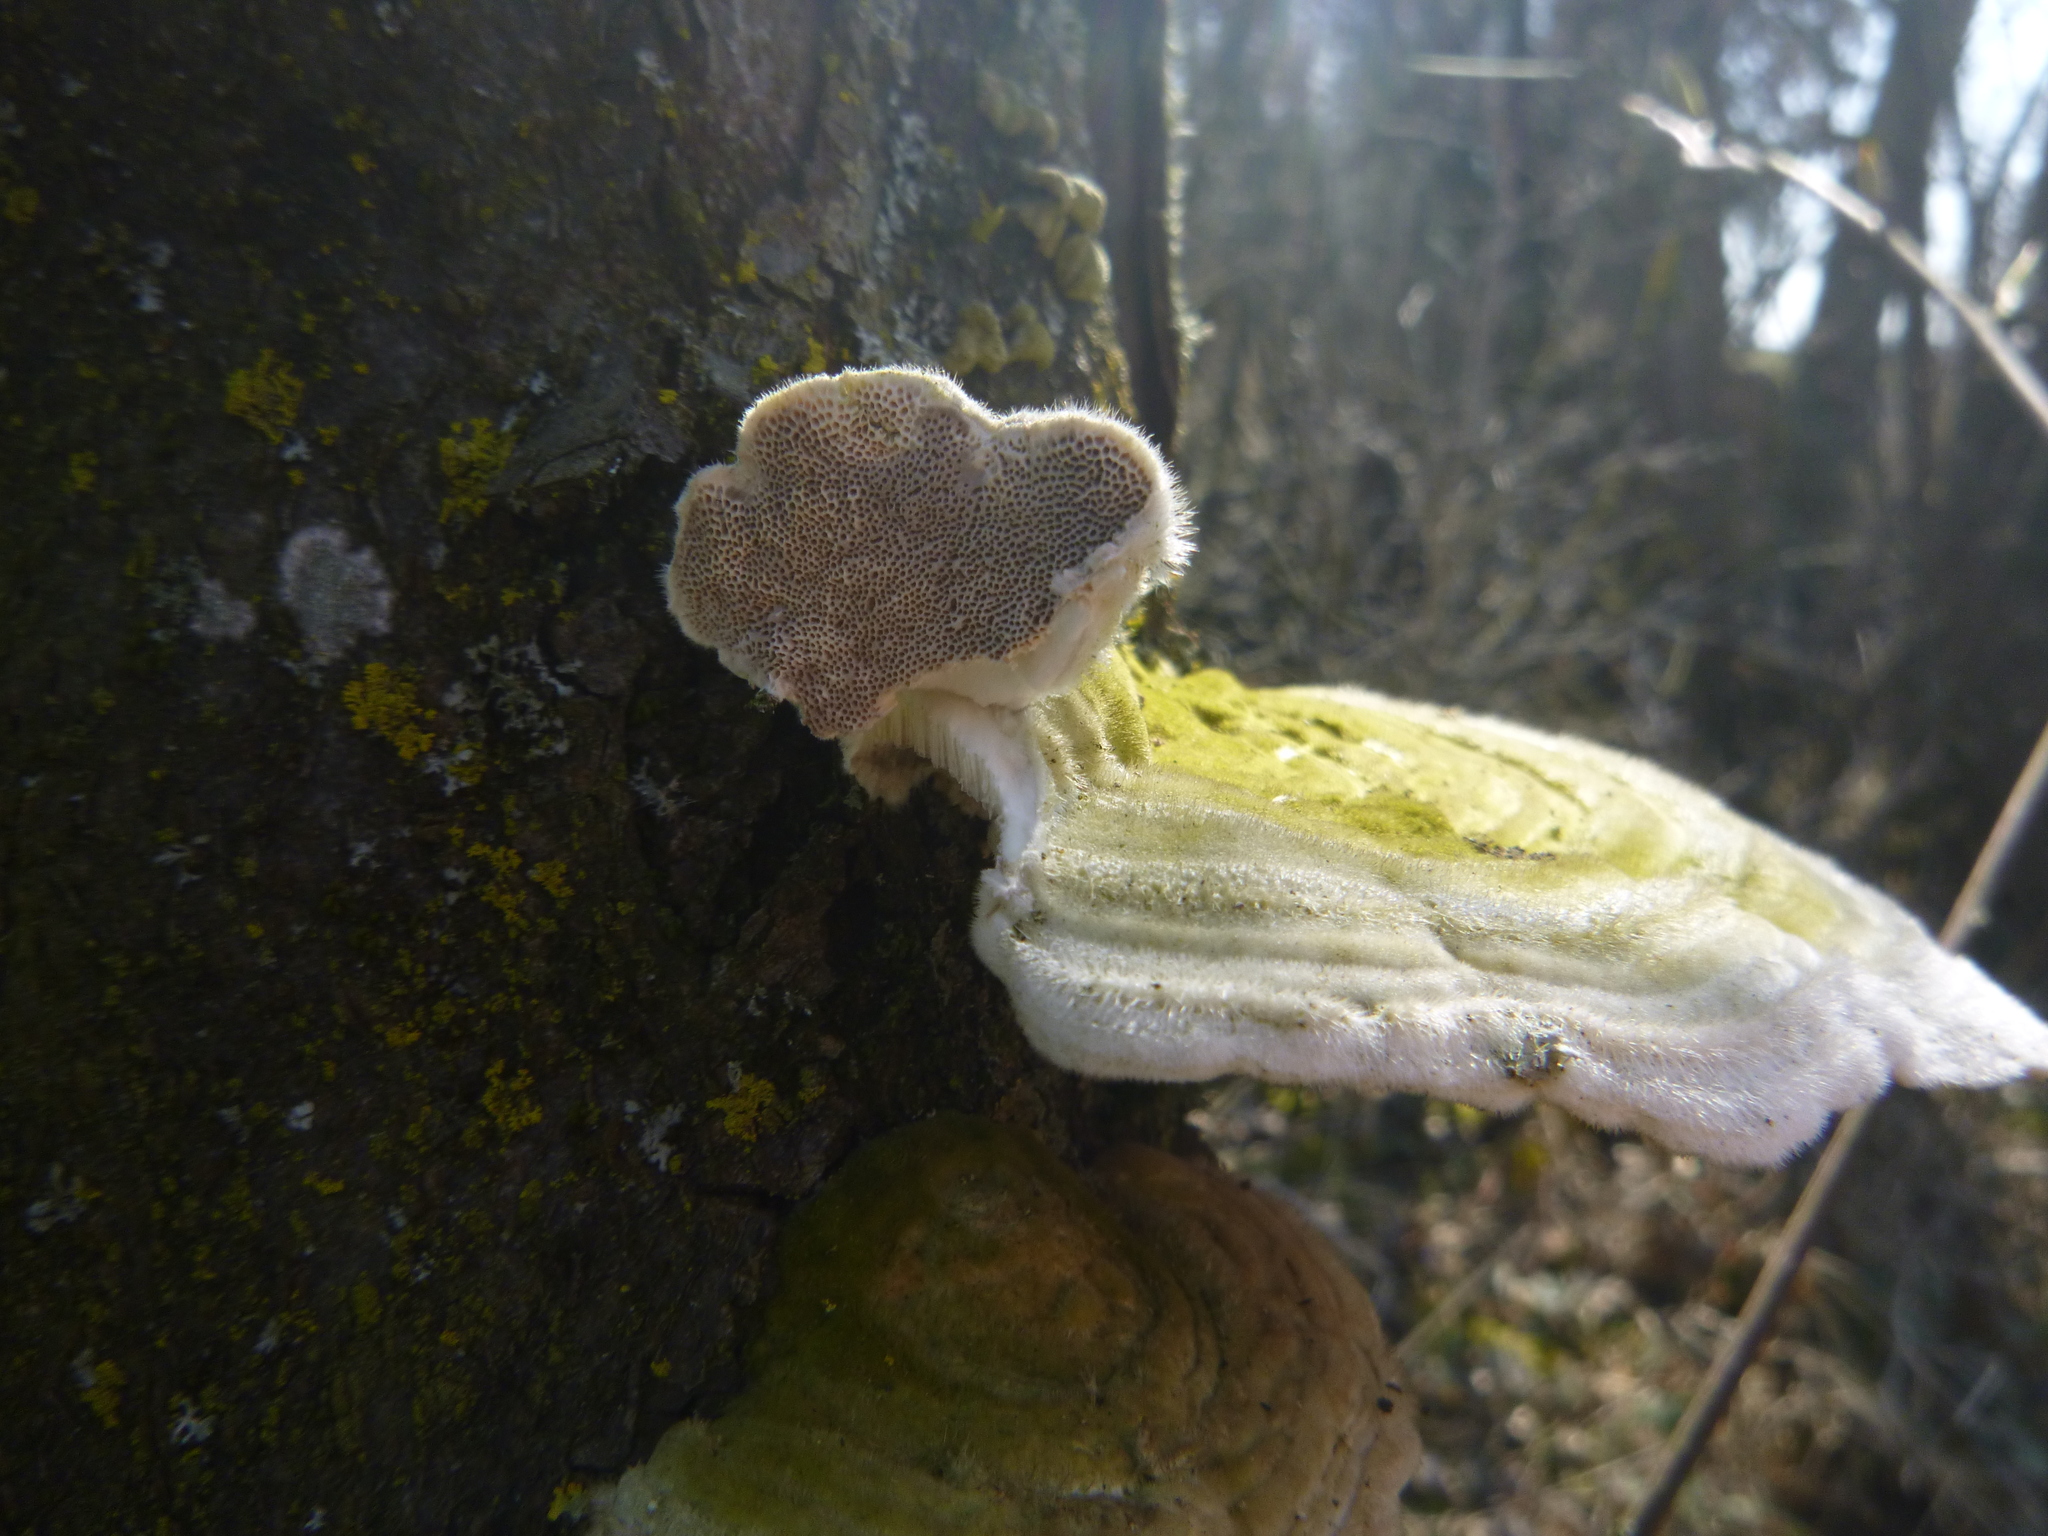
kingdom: Fungi
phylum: Basidiomycota
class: Agaricomycetes
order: Polyporales
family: Polyporaceae
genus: Trametes
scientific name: Trametes hirsuta
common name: Hairy bracket
